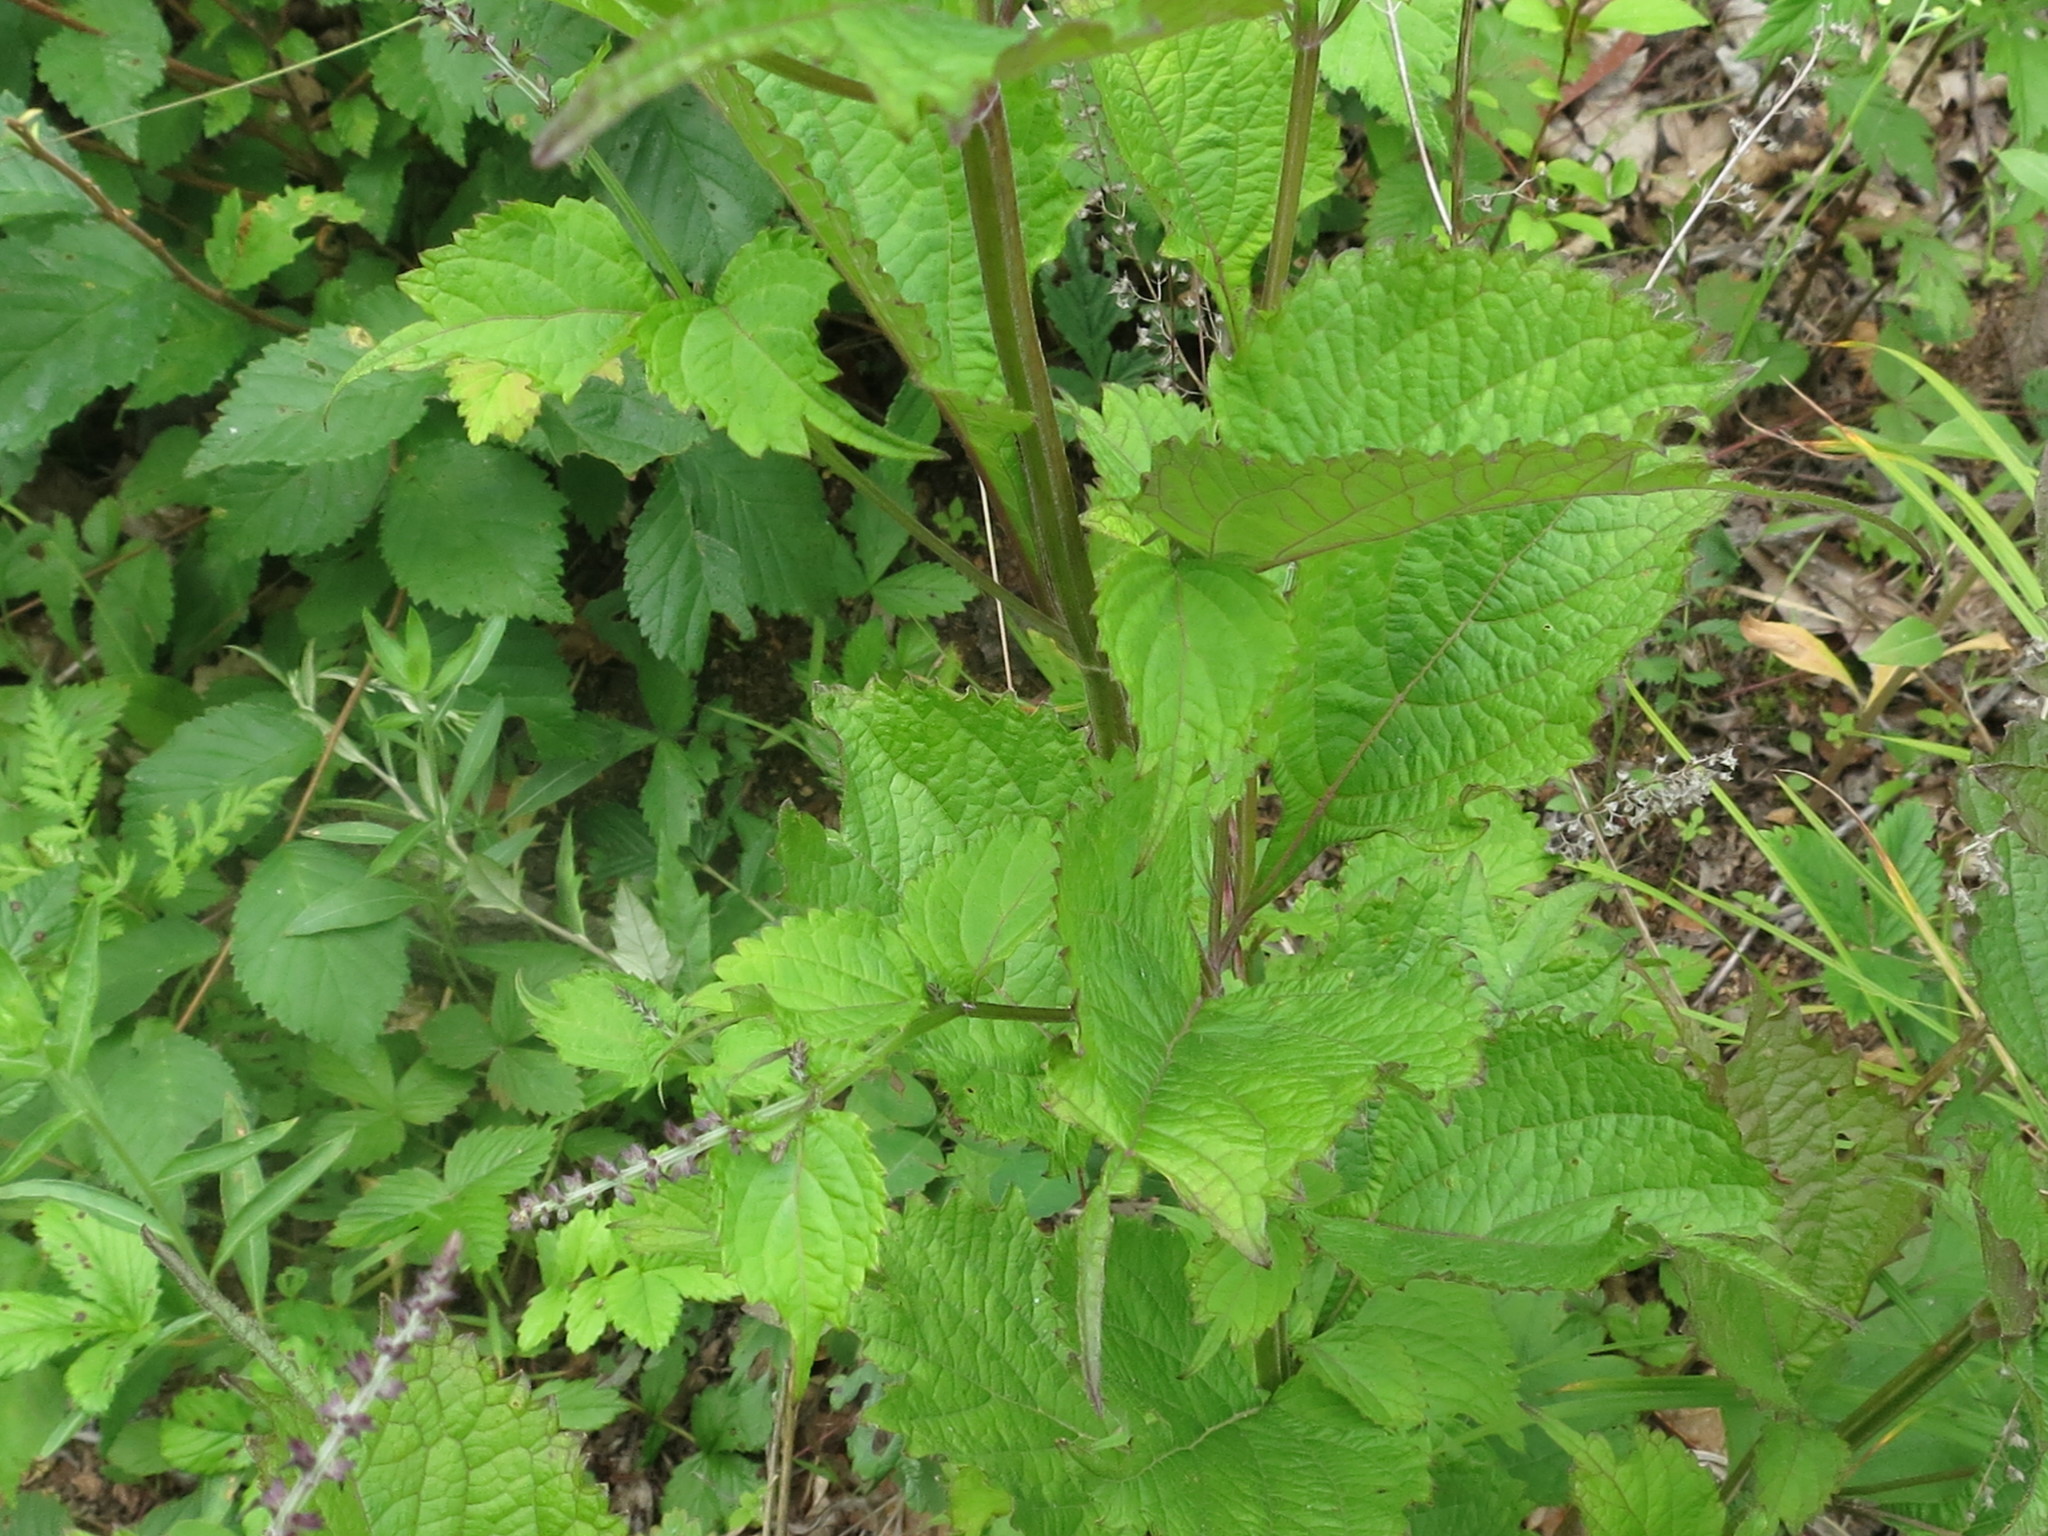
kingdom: Plantae
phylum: Tracheophyta
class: Magnoliopsida
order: Lamiales
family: Lamiaceae
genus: Isodon
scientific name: Isodon excisus
